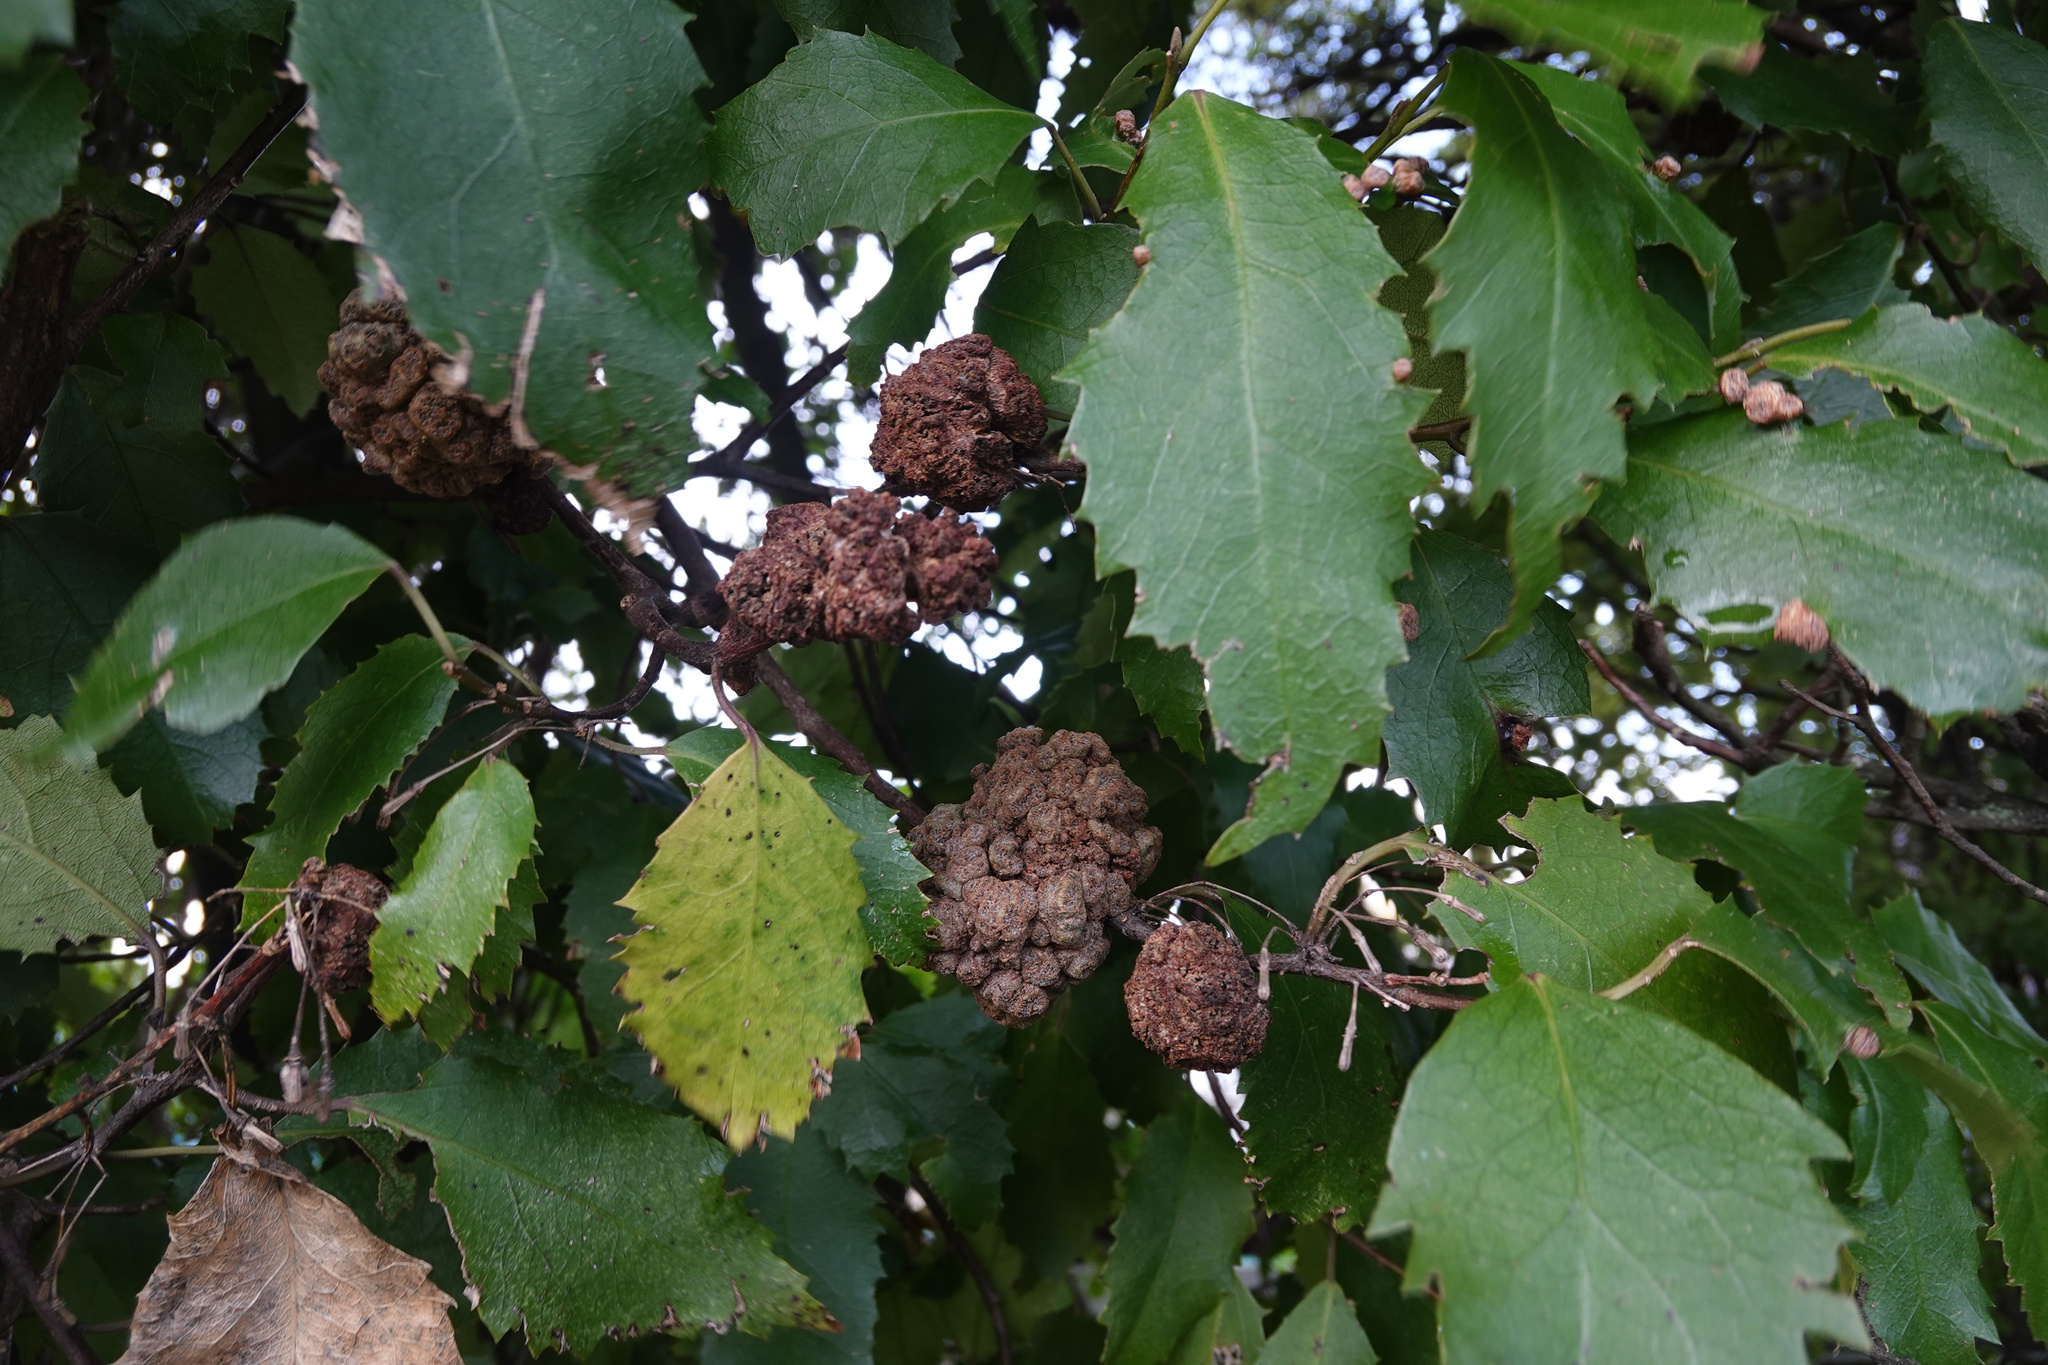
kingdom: Animalia
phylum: Arthropoda
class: Arachnida
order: Trombidiformes
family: Eriophyidae
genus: Eriophyes
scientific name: Eriophyes hoheriae
